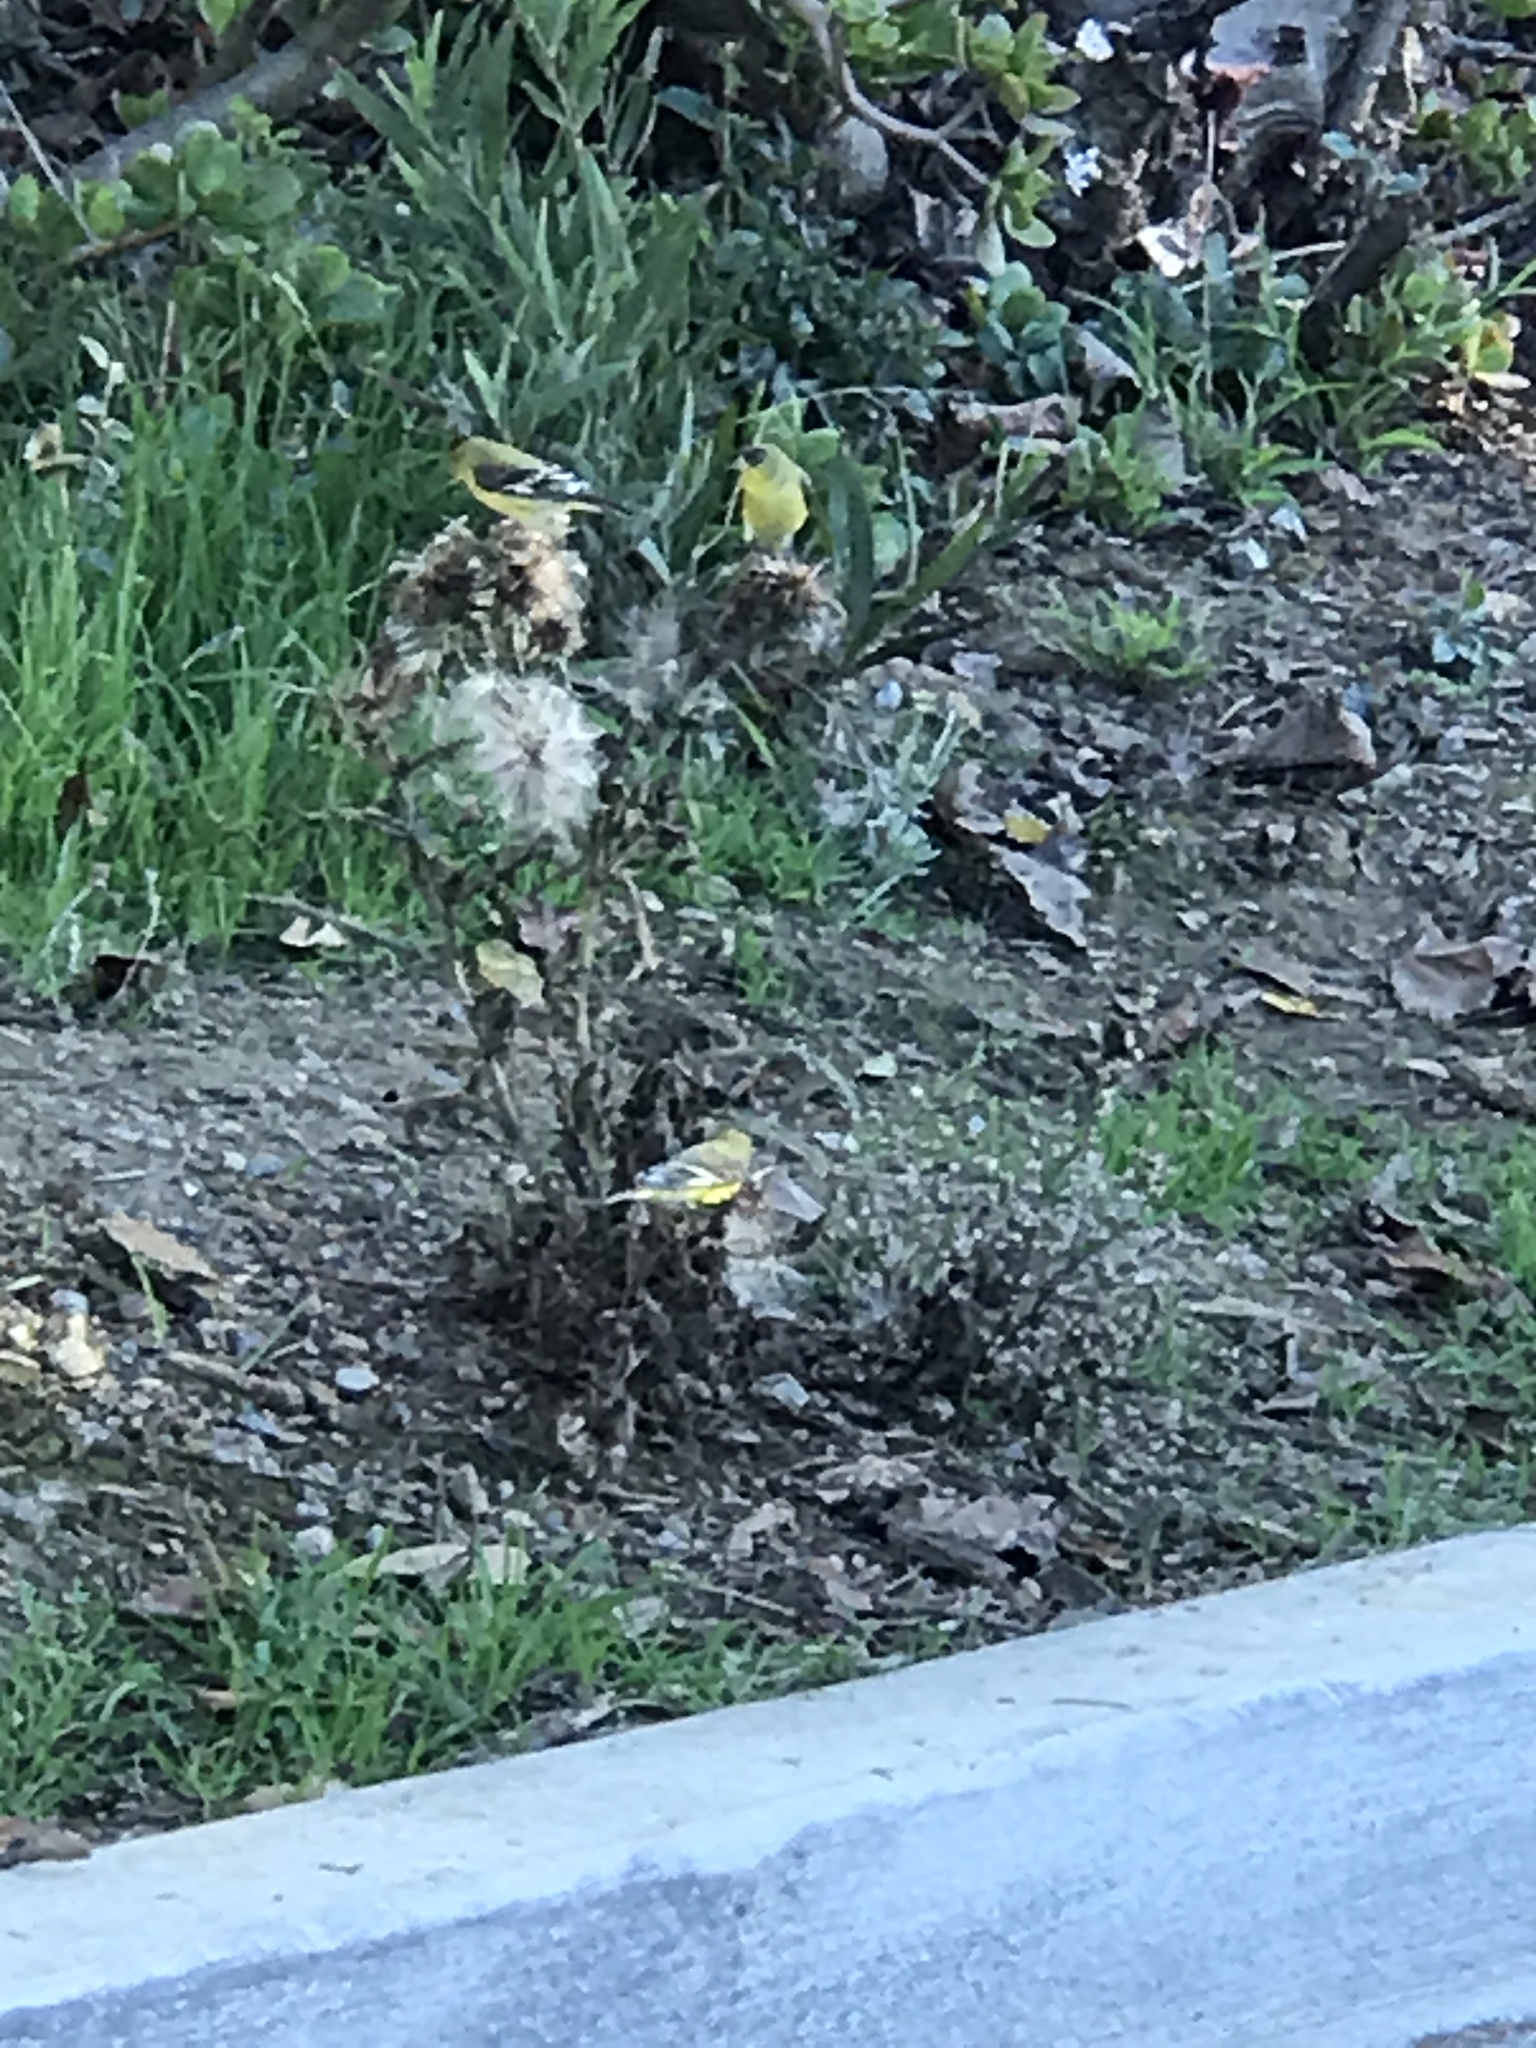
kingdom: Animalia
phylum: Chordata
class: Aves
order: Passeriformes
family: Fringillidae
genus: Spinus
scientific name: Spinus psaltria
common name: Lesser goldfinch
